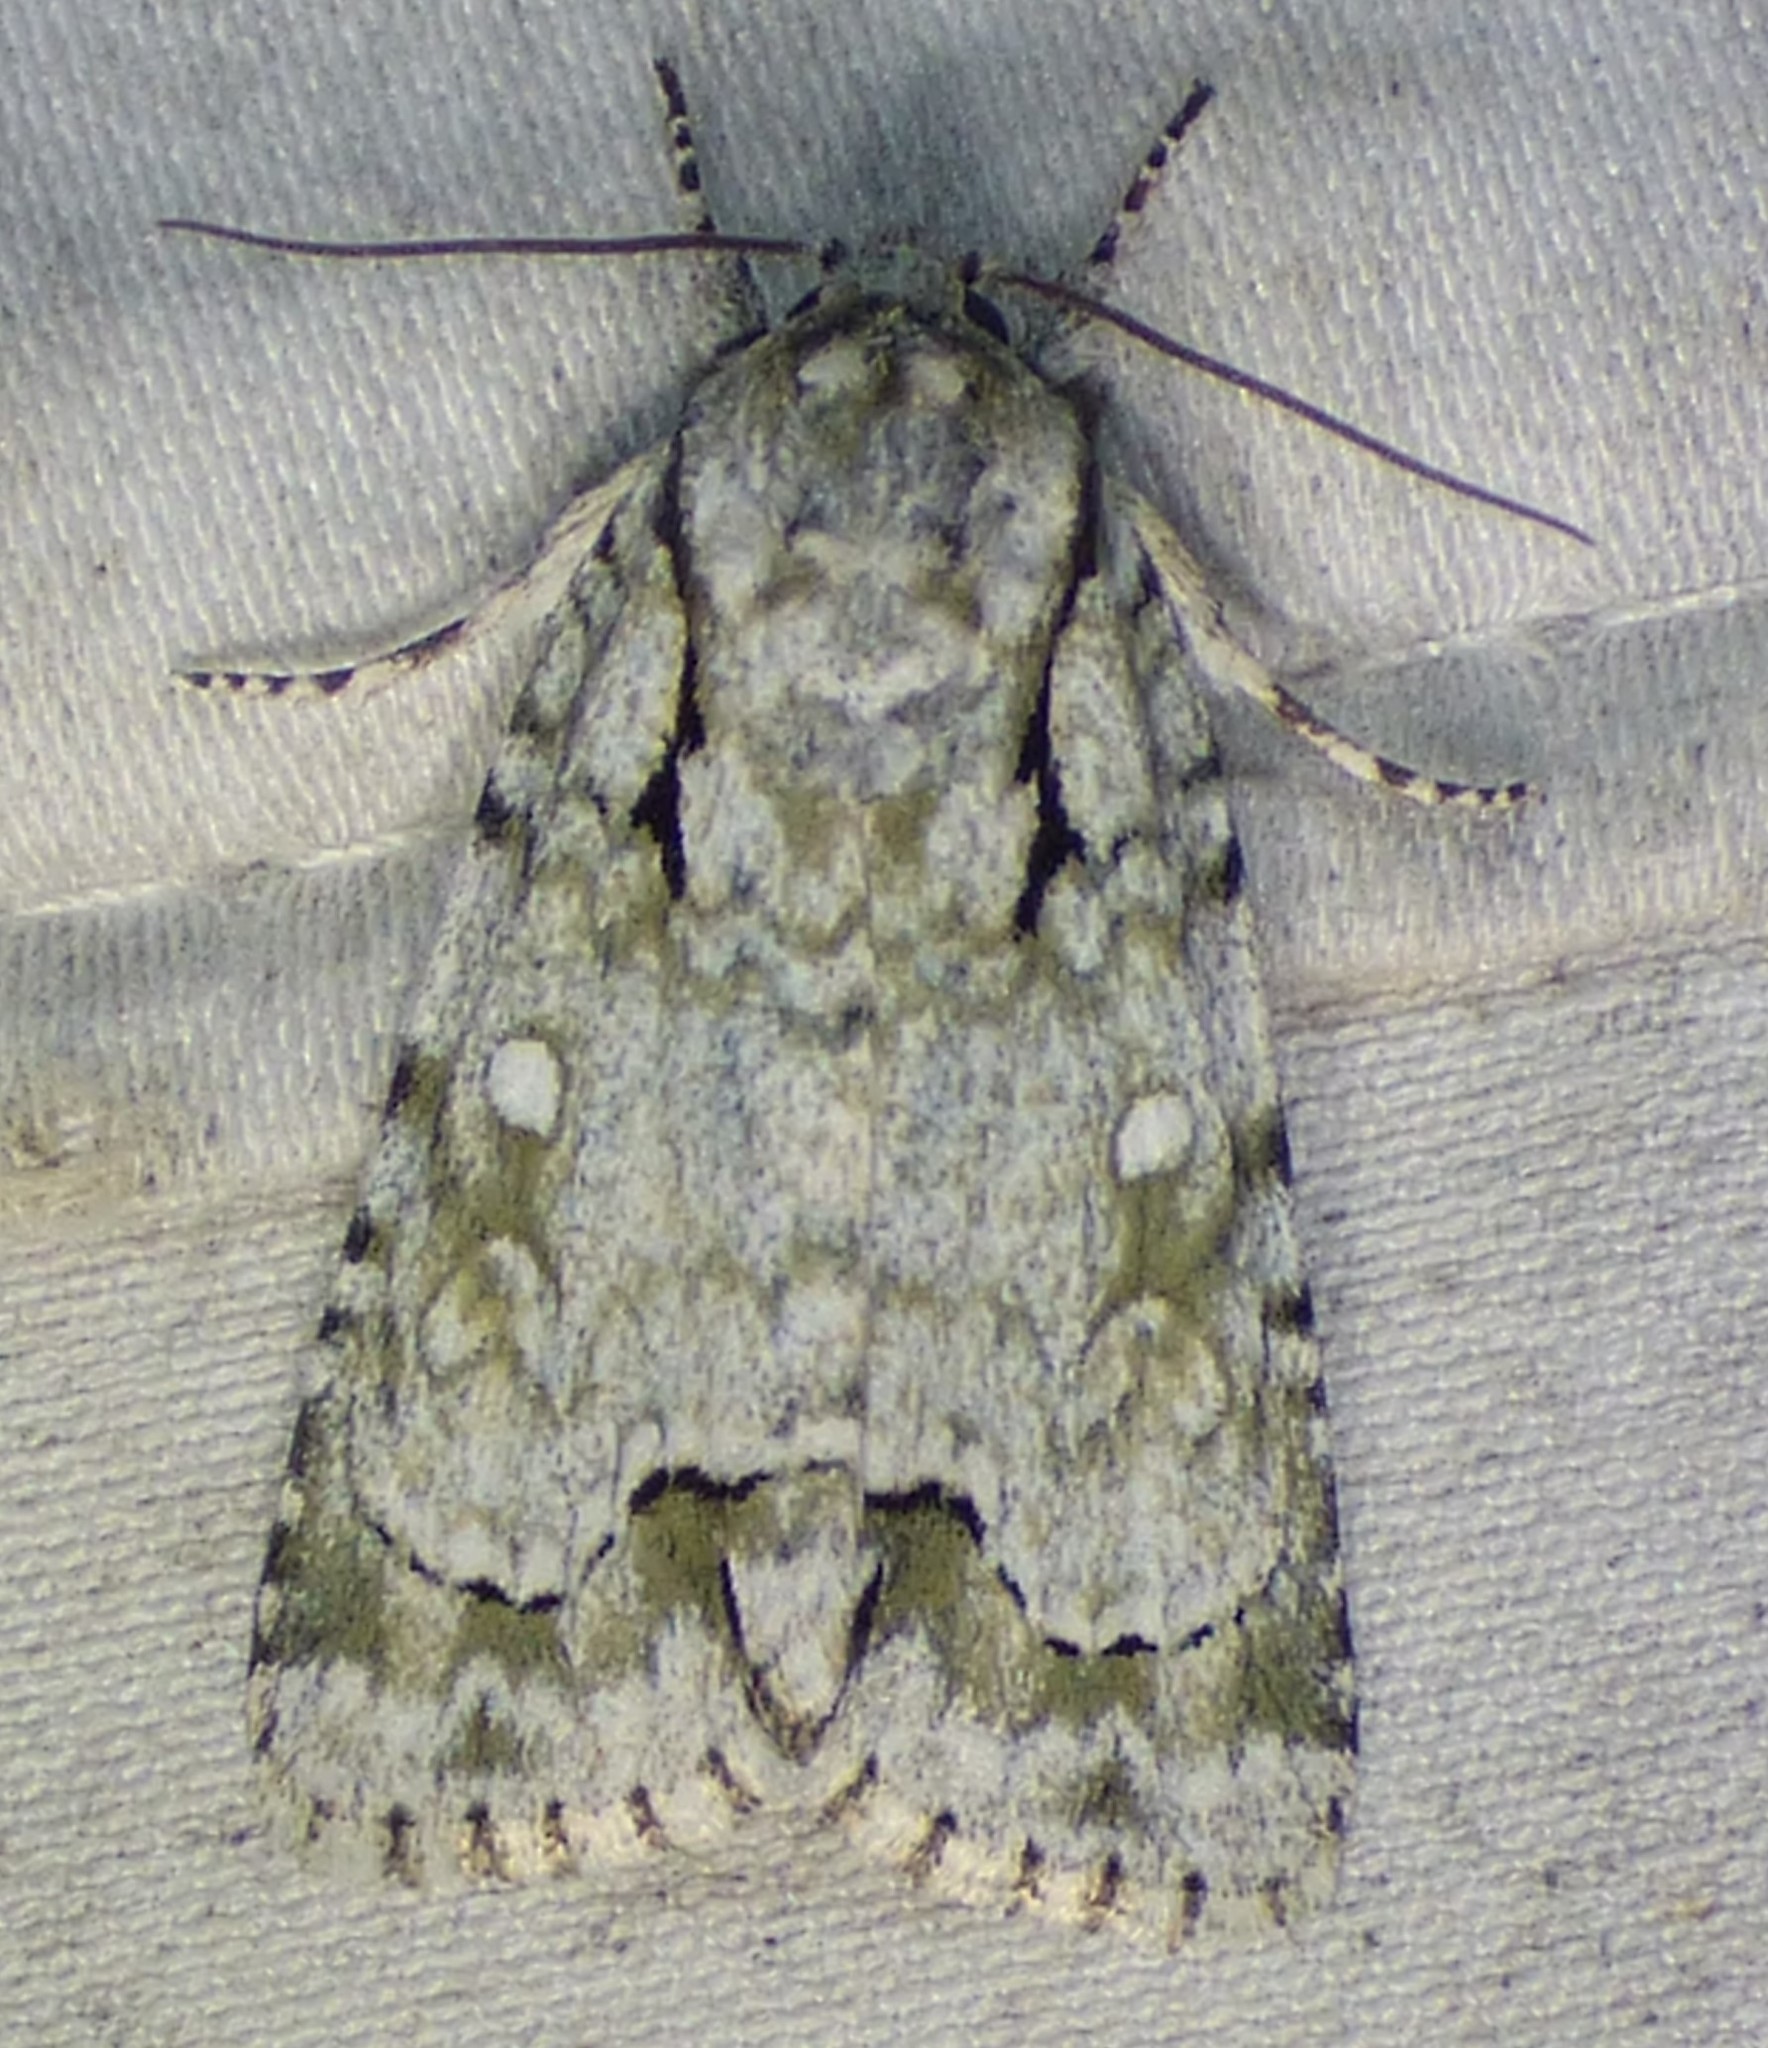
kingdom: Animalia
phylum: Arthropoda
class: Insecta
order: Lepidoptera
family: Noctuidae
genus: Acronicta
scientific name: Acronicta vinnula
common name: Delightful dagger
